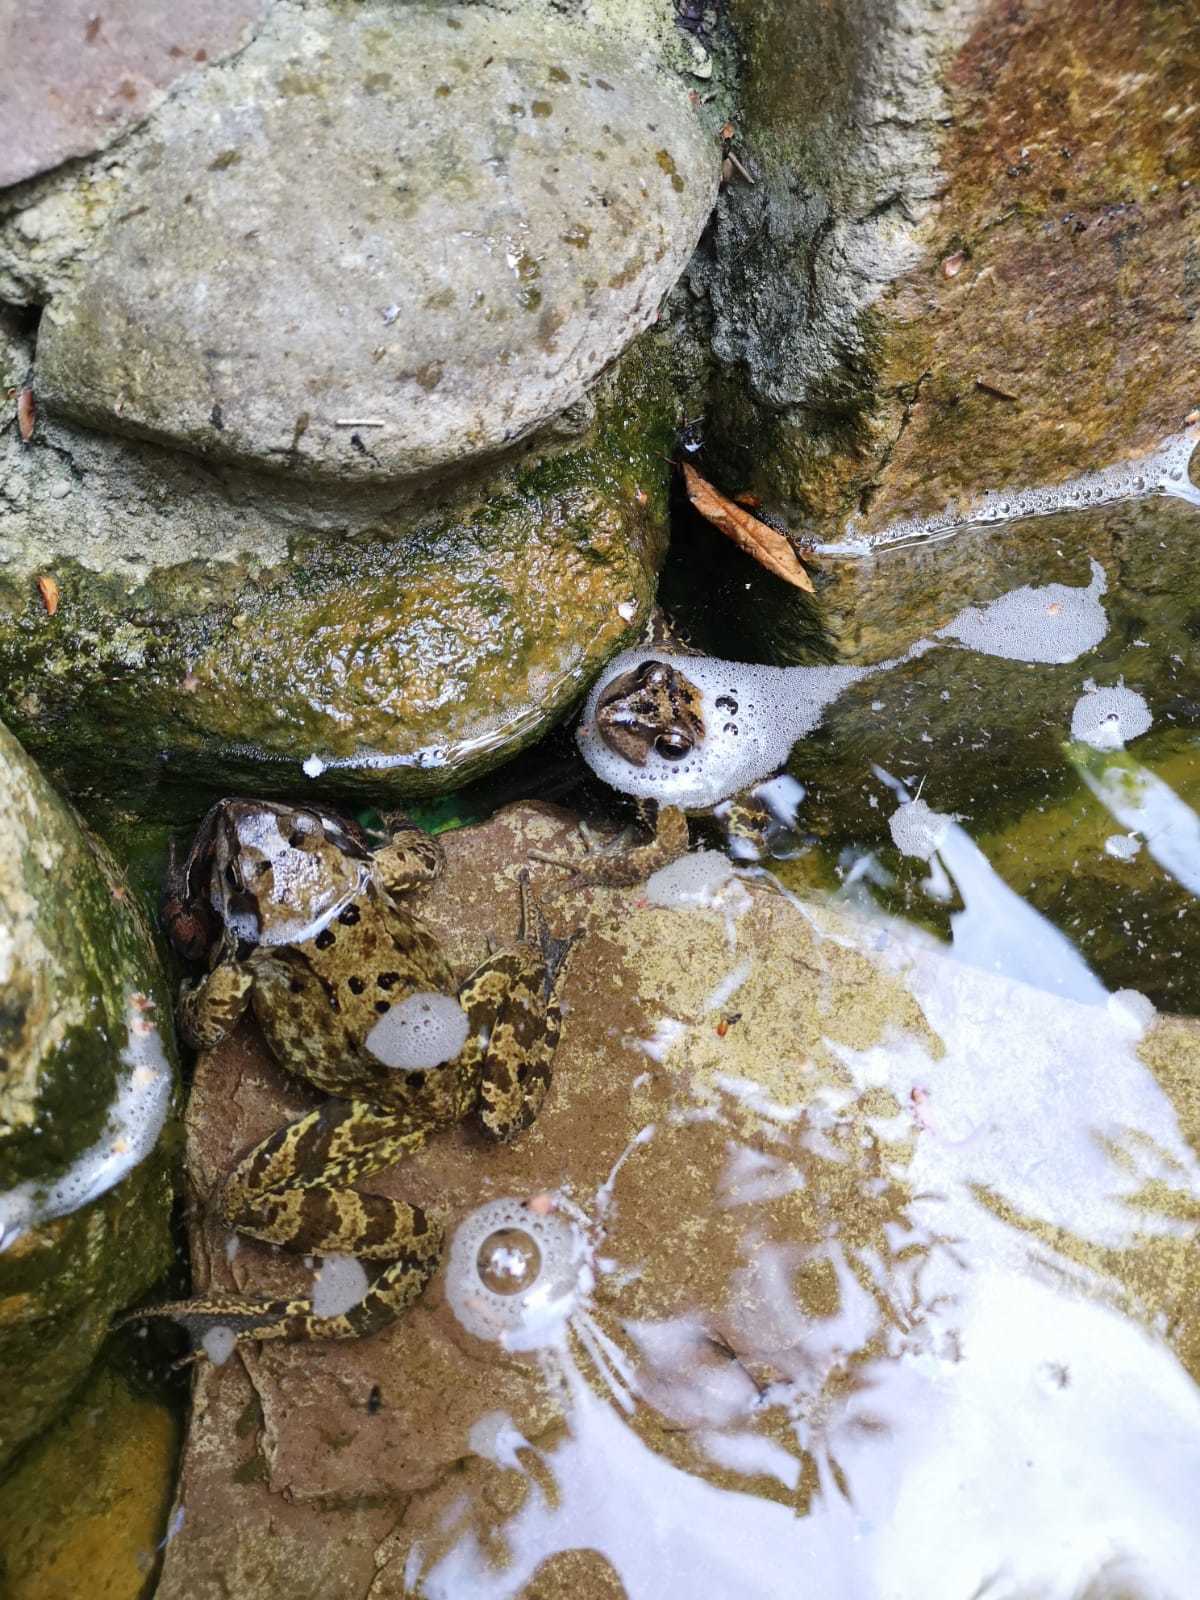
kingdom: Animalia
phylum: Chordata
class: Amphibia
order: Anura
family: Ranidae
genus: Rana
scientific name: Rana temporaria
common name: Common frog
